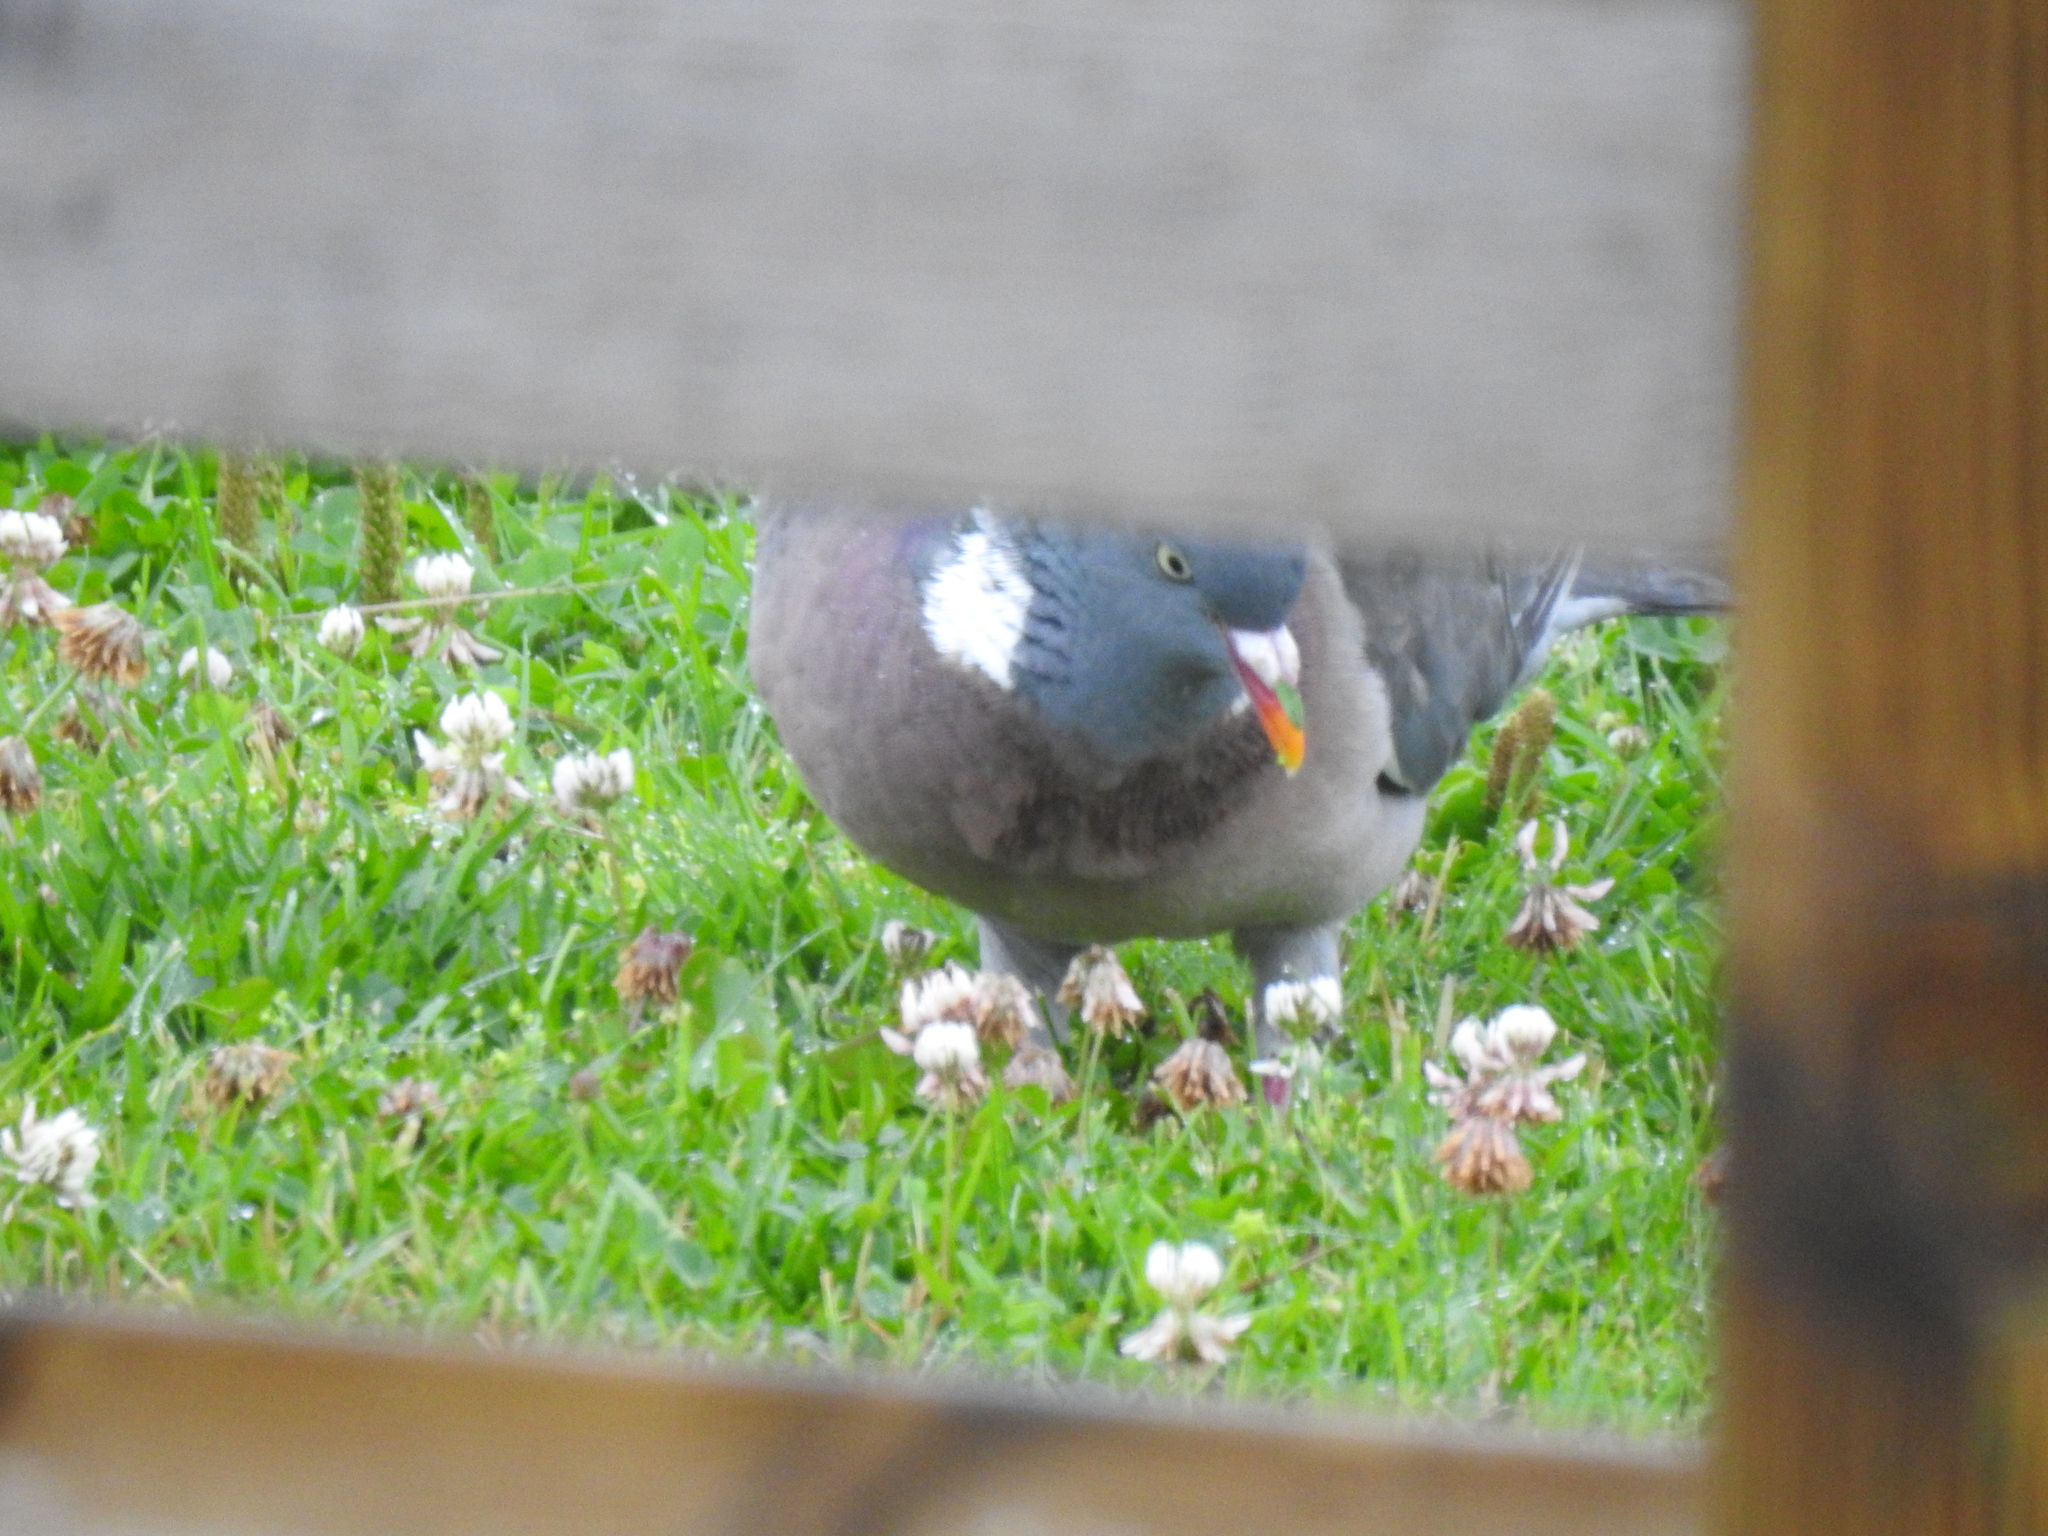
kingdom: Animalia
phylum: Chordata
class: Aves
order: Columbiformes
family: Columbidae
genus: Columba
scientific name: Columba palumbus
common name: Common wood pigeon
